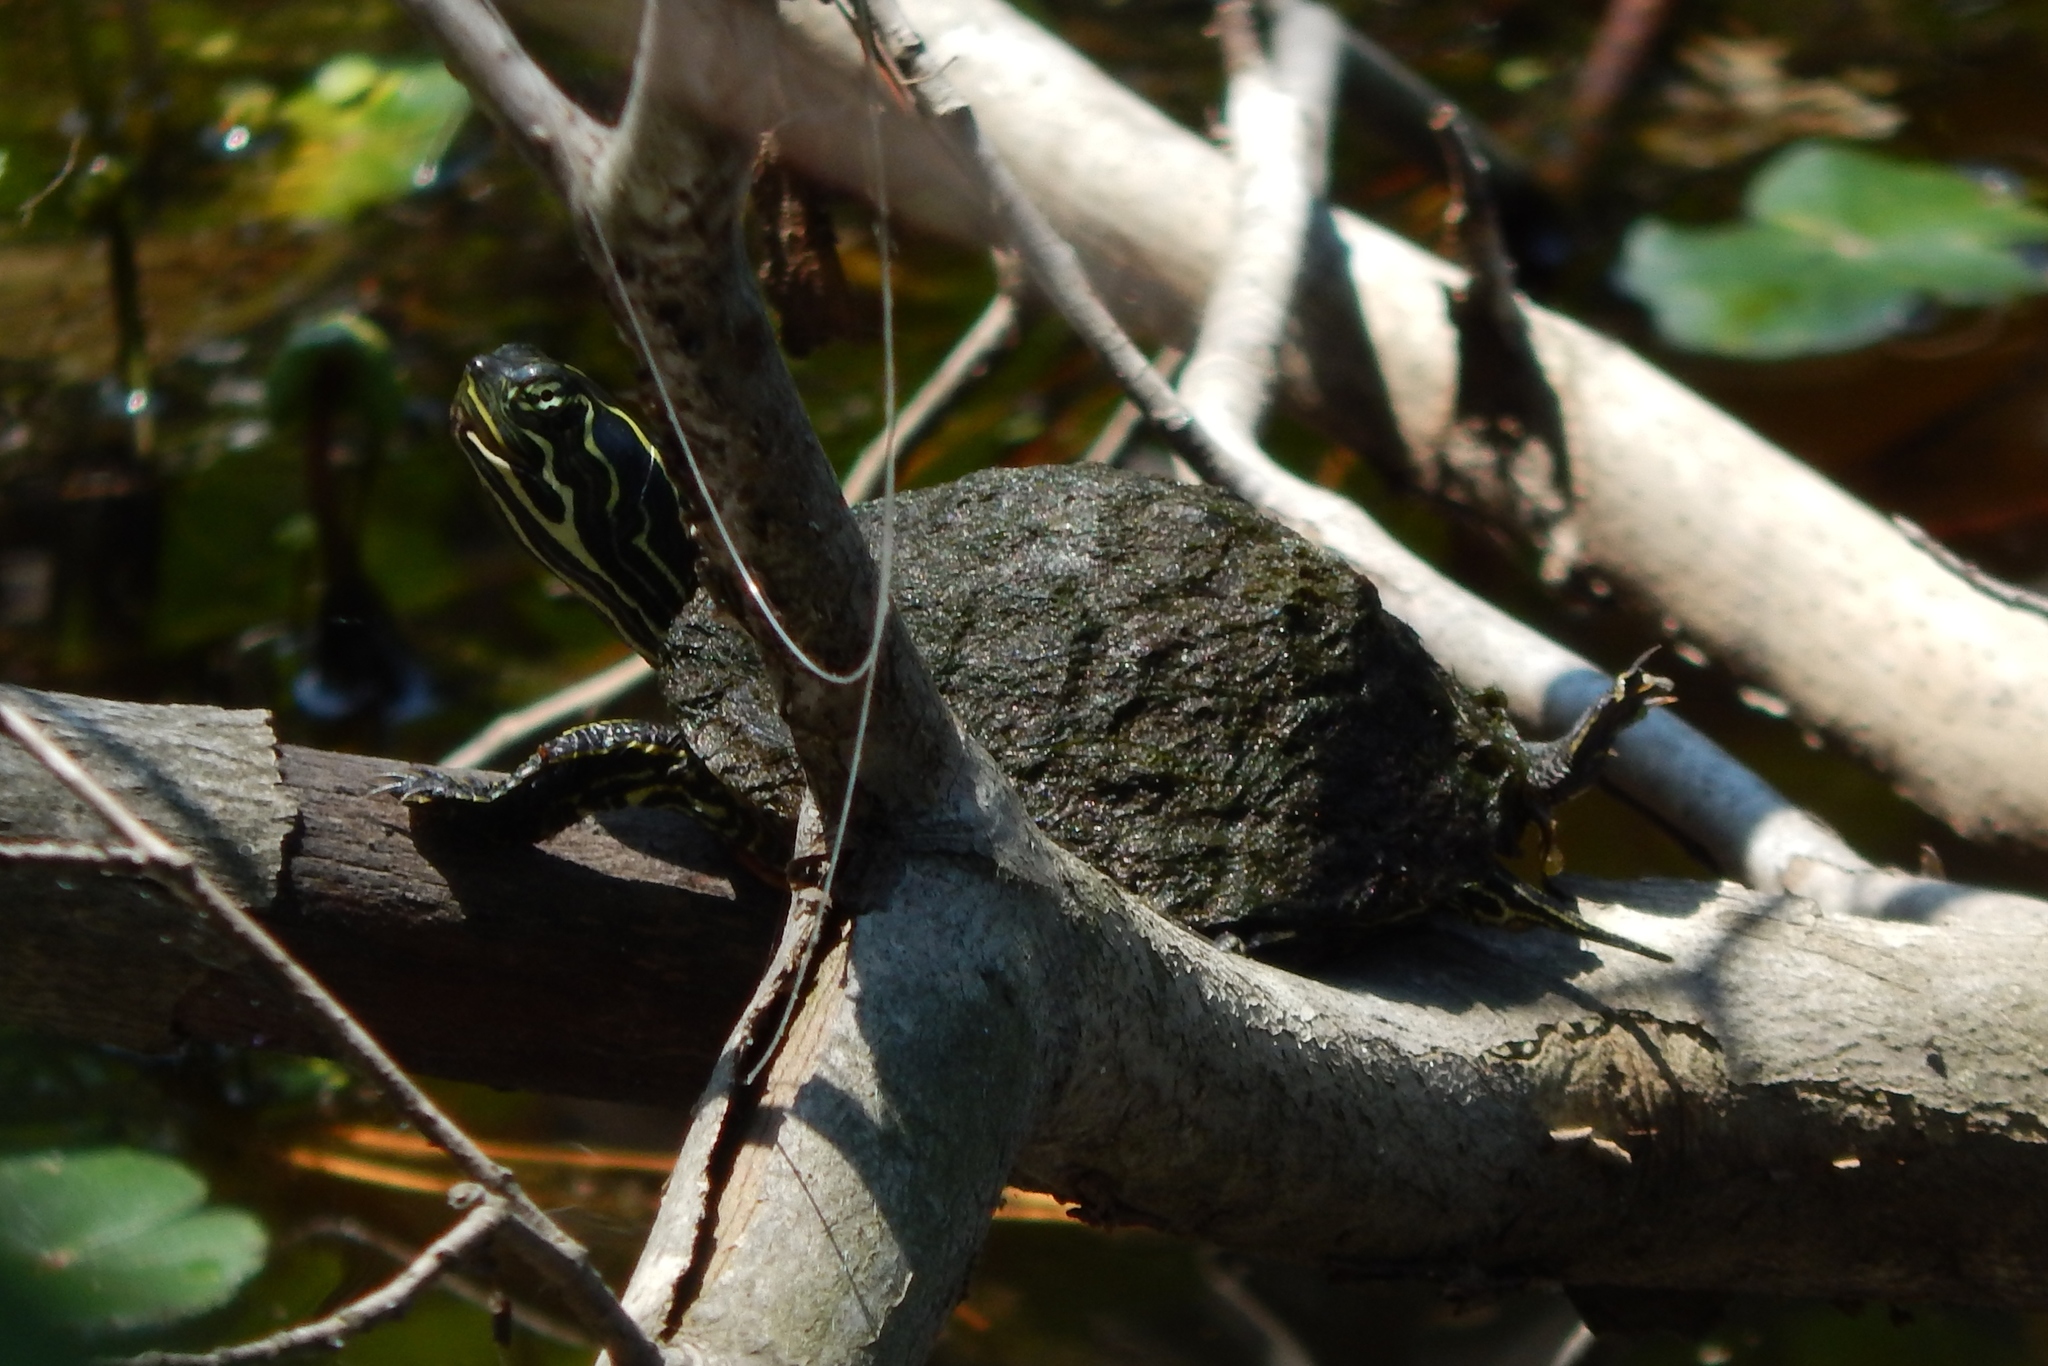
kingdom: Animalia
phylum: Chordata
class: Testudines
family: Emydidae
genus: Pseudemys
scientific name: Pseudemys rubriventris
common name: American red-bellied turtle
